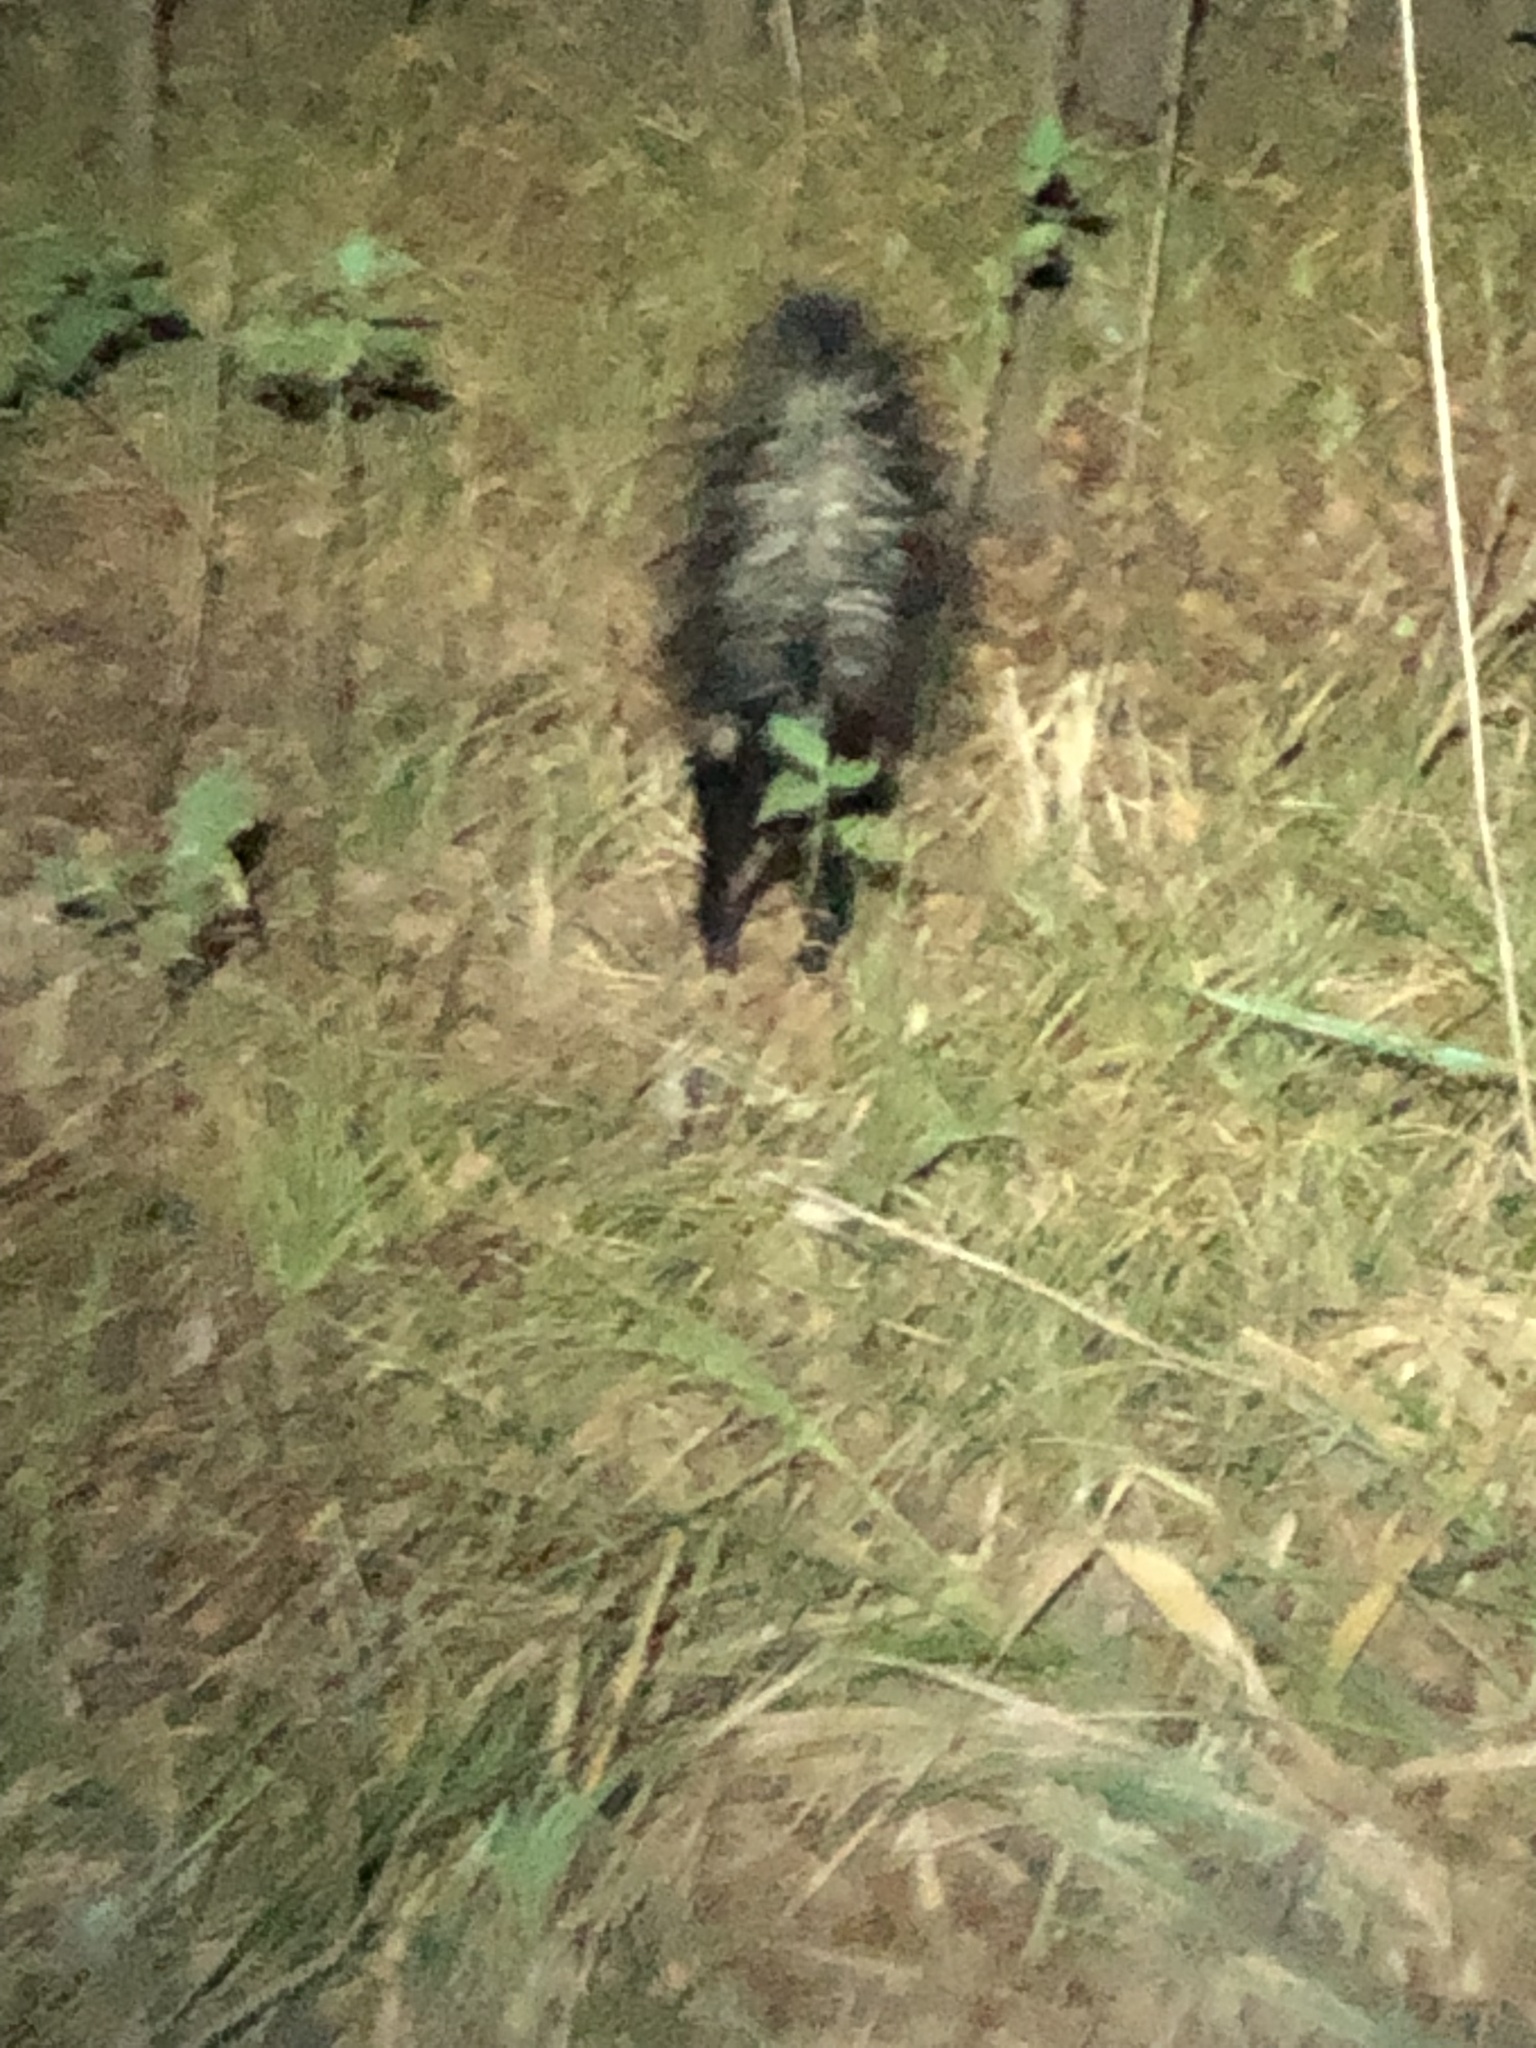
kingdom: Animalia
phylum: Chordata
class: Mammalia
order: Carnivora
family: Mephitidae
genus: Mephitis
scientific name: Mephitis mephitis
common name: Striped skunk
